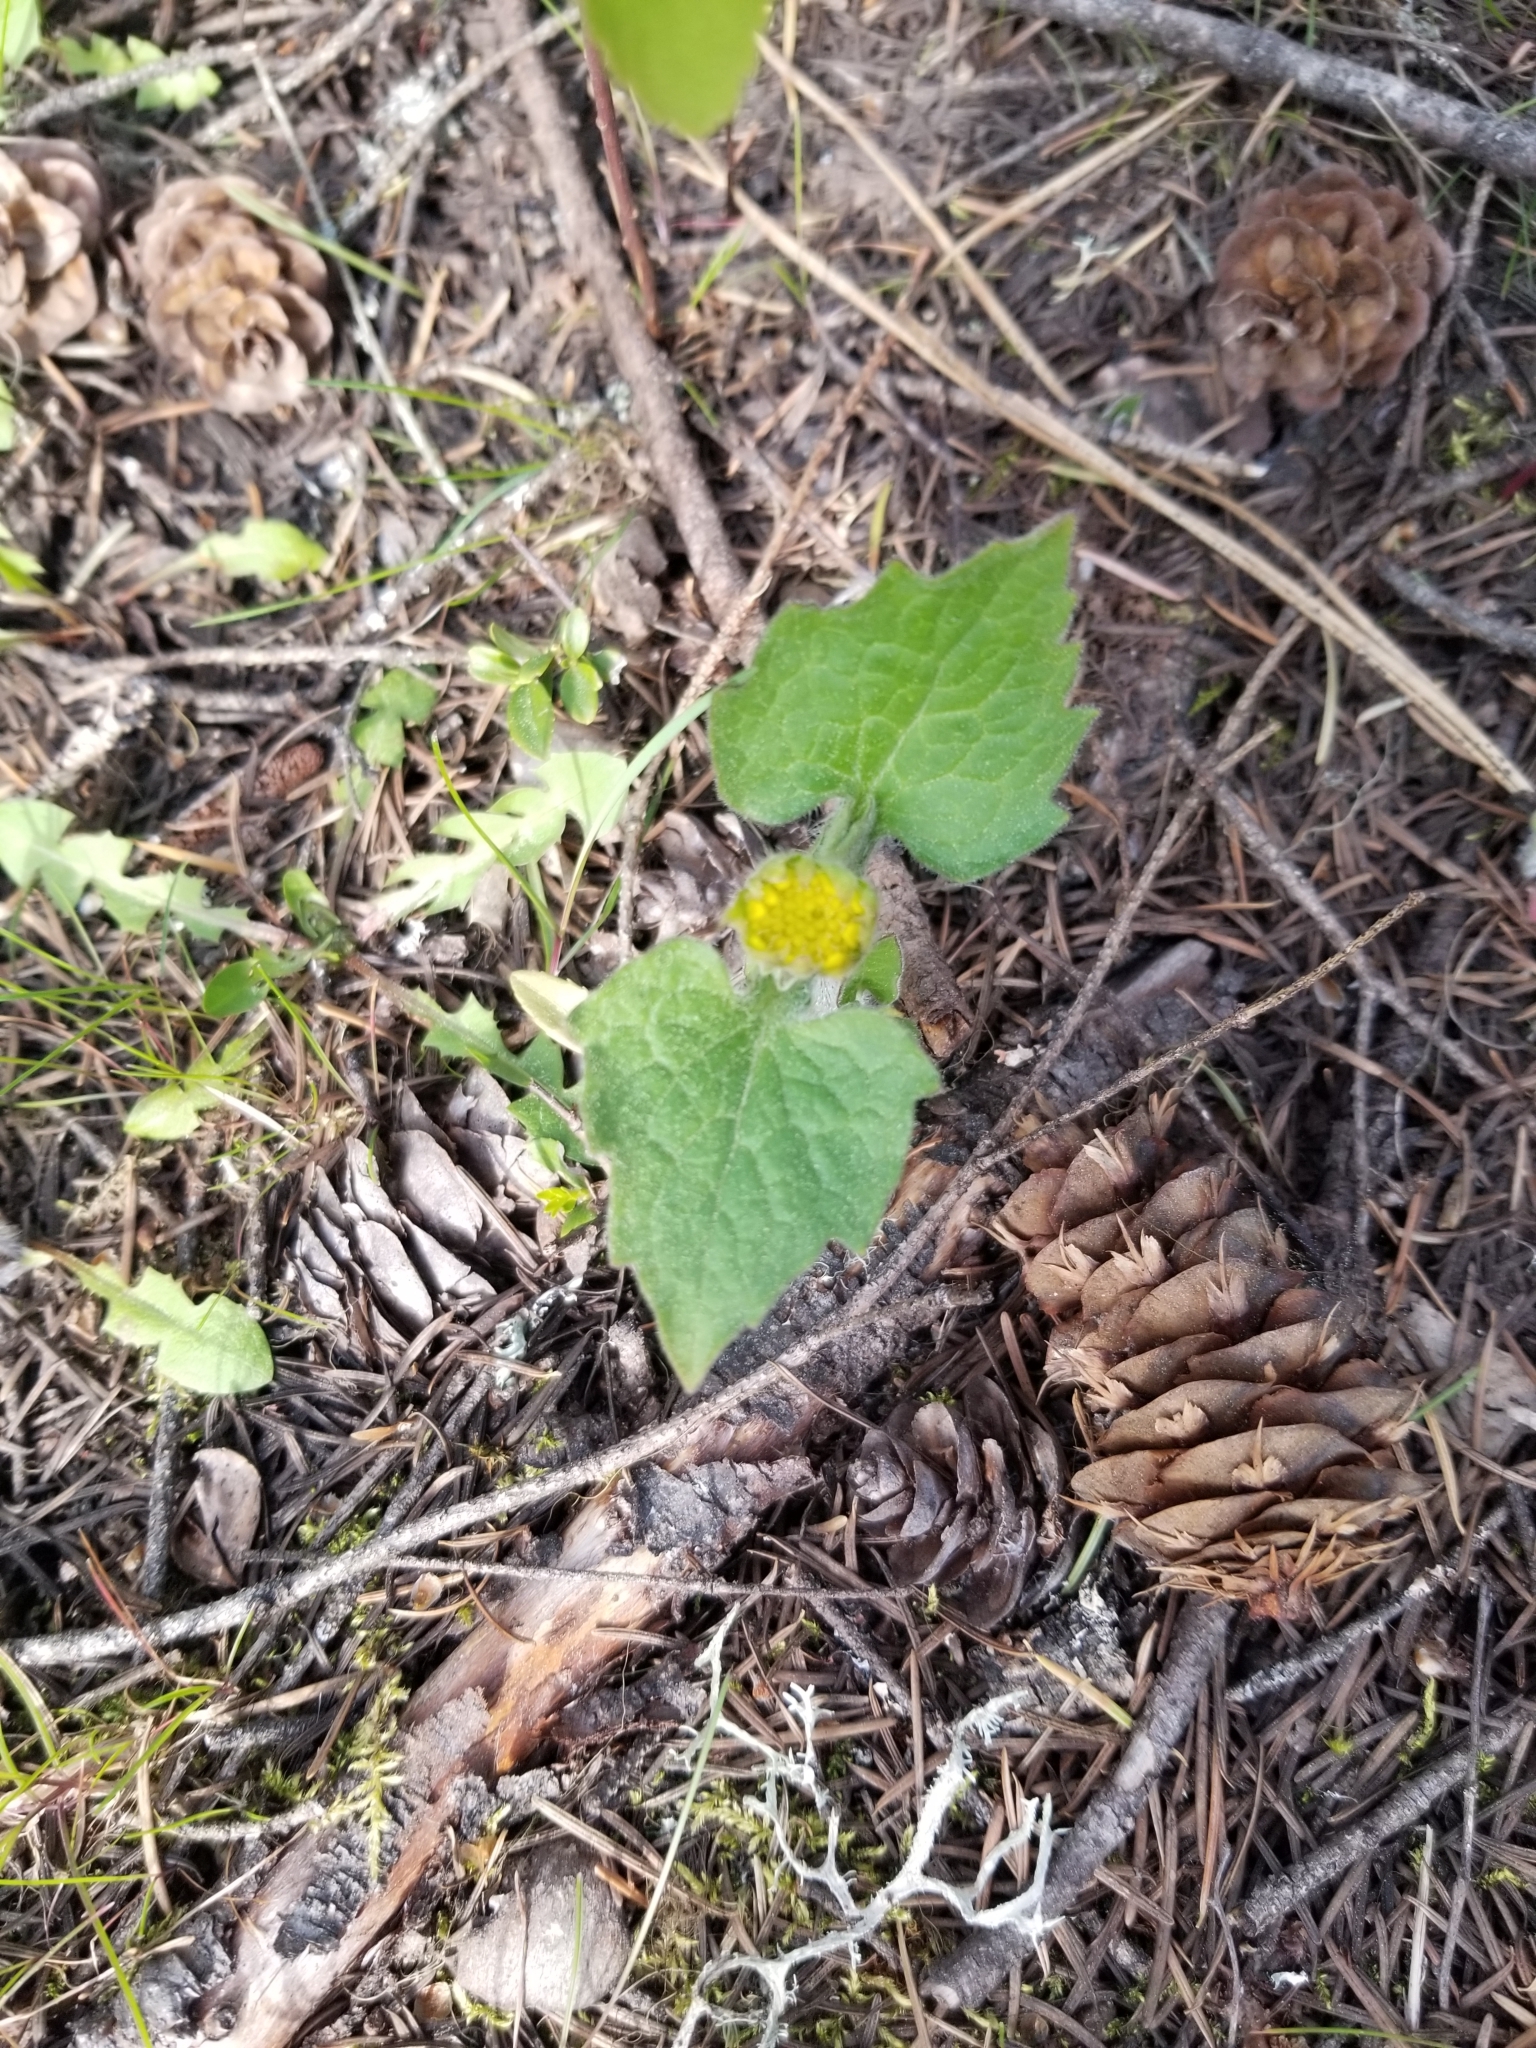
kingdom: Plantae
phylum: Tracheophyta
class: Magnoliopsida
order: Asterales
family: Asteraceae
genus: Arnica
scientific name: Arnica cordifolia
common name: Heart-leaf arnica
